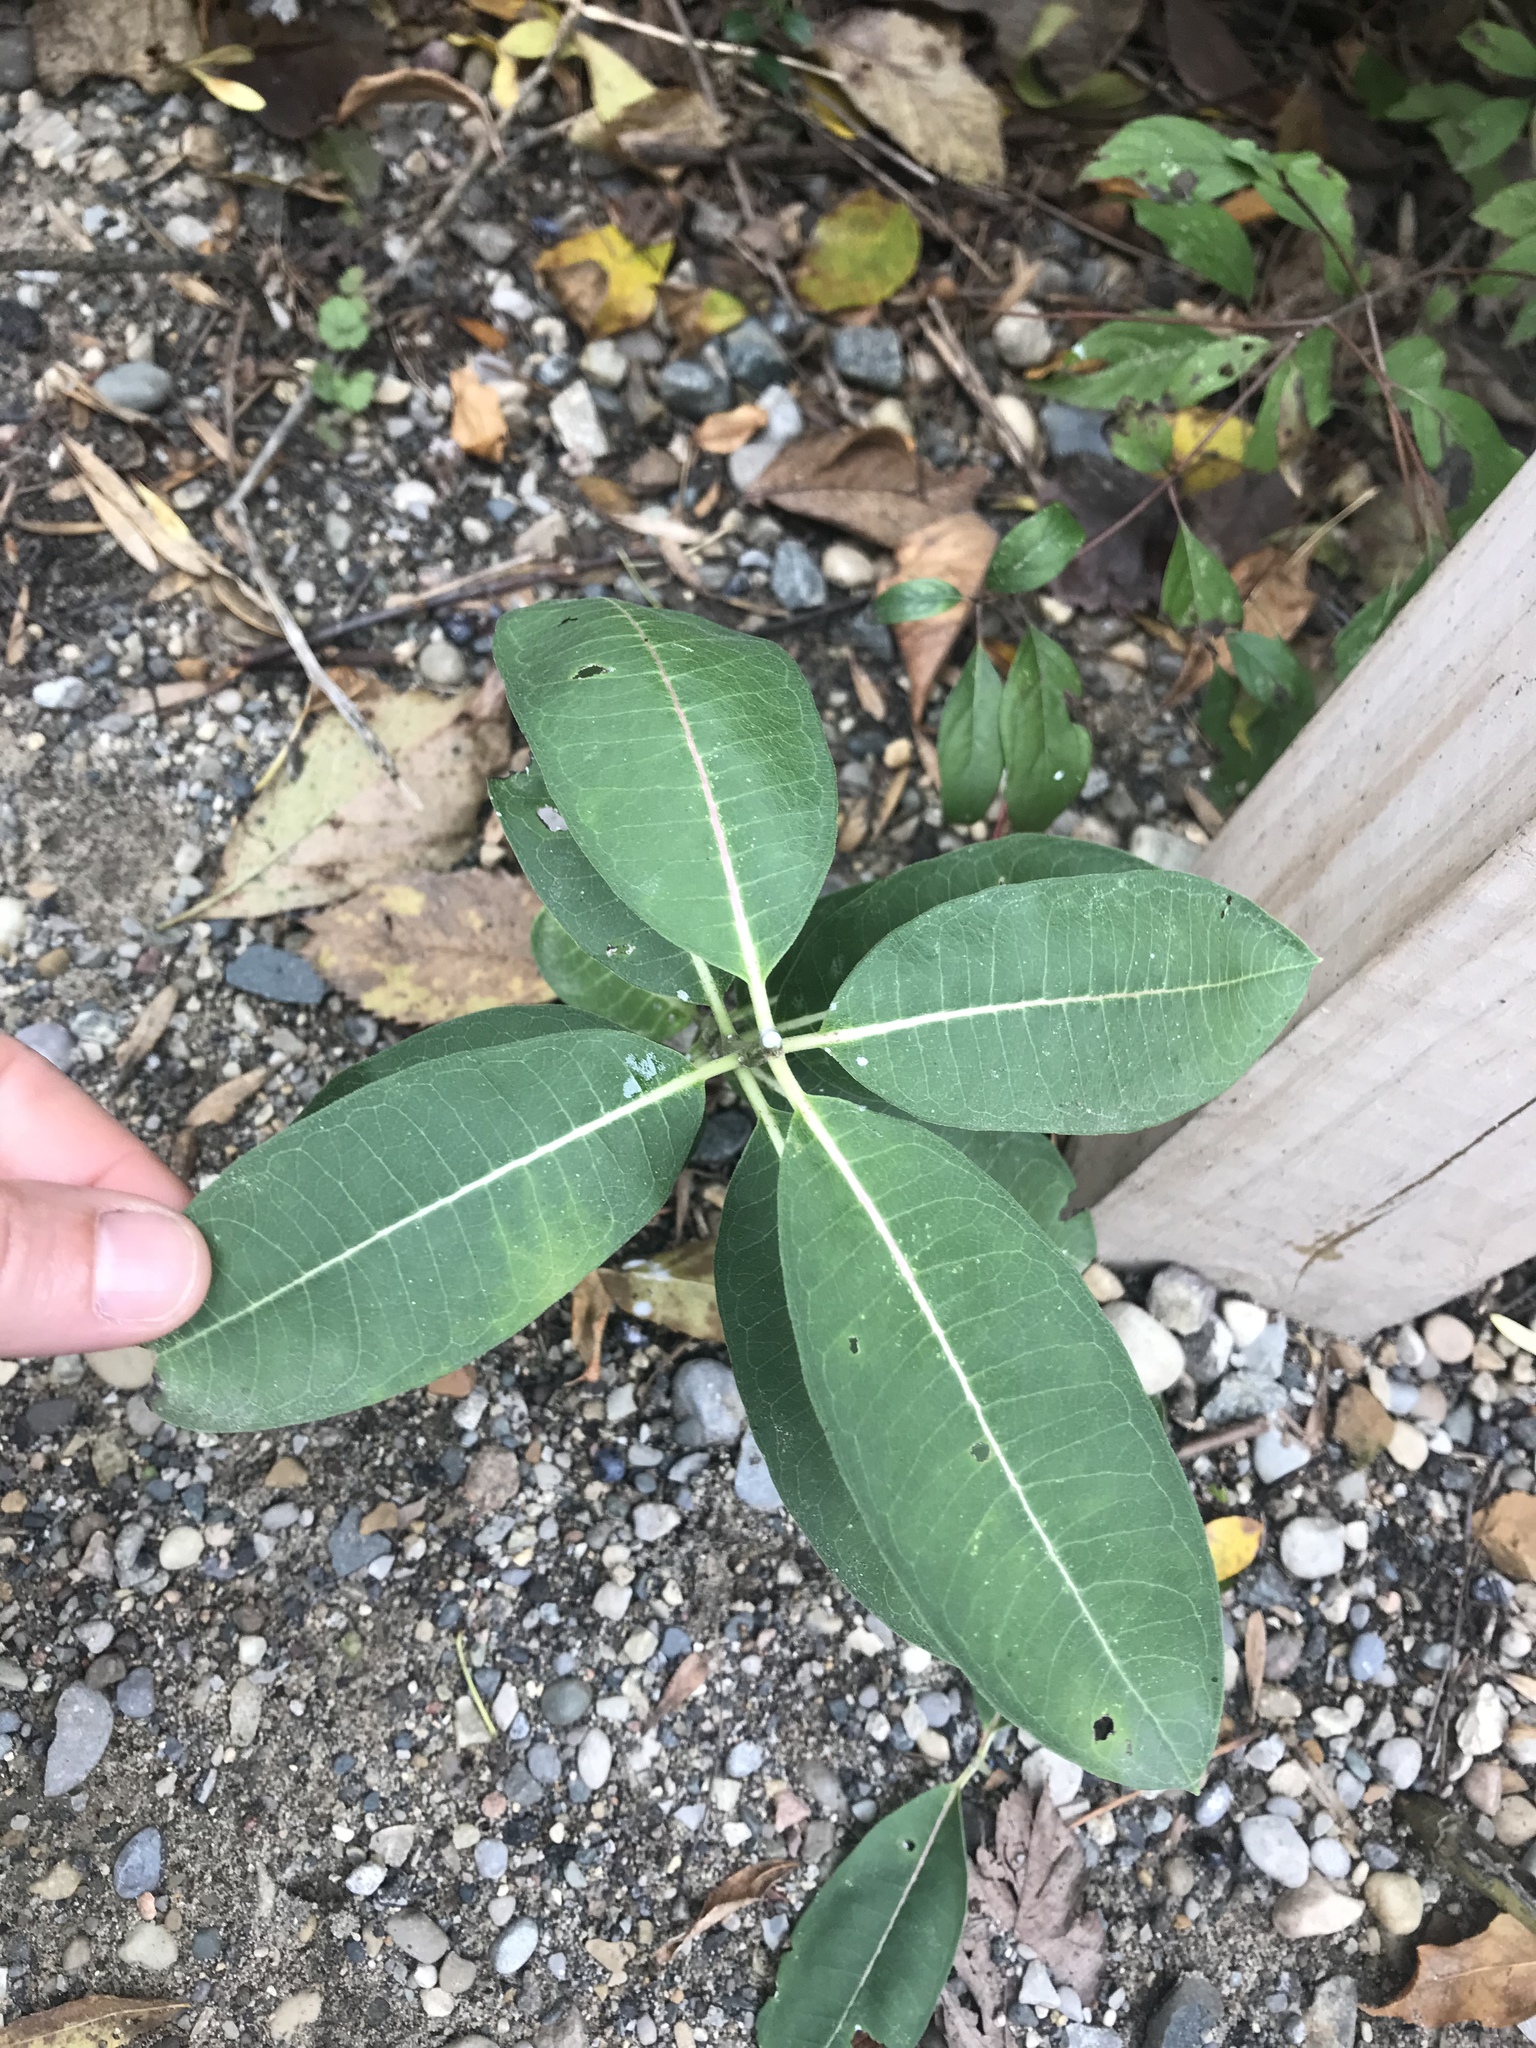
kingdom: Plantae
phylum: Tracheophyta
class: Magnoliopsida
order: Gentianales
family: Apocynaceae
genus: Asclepias
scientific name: Asclepias syriaca
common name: Common milkweed
